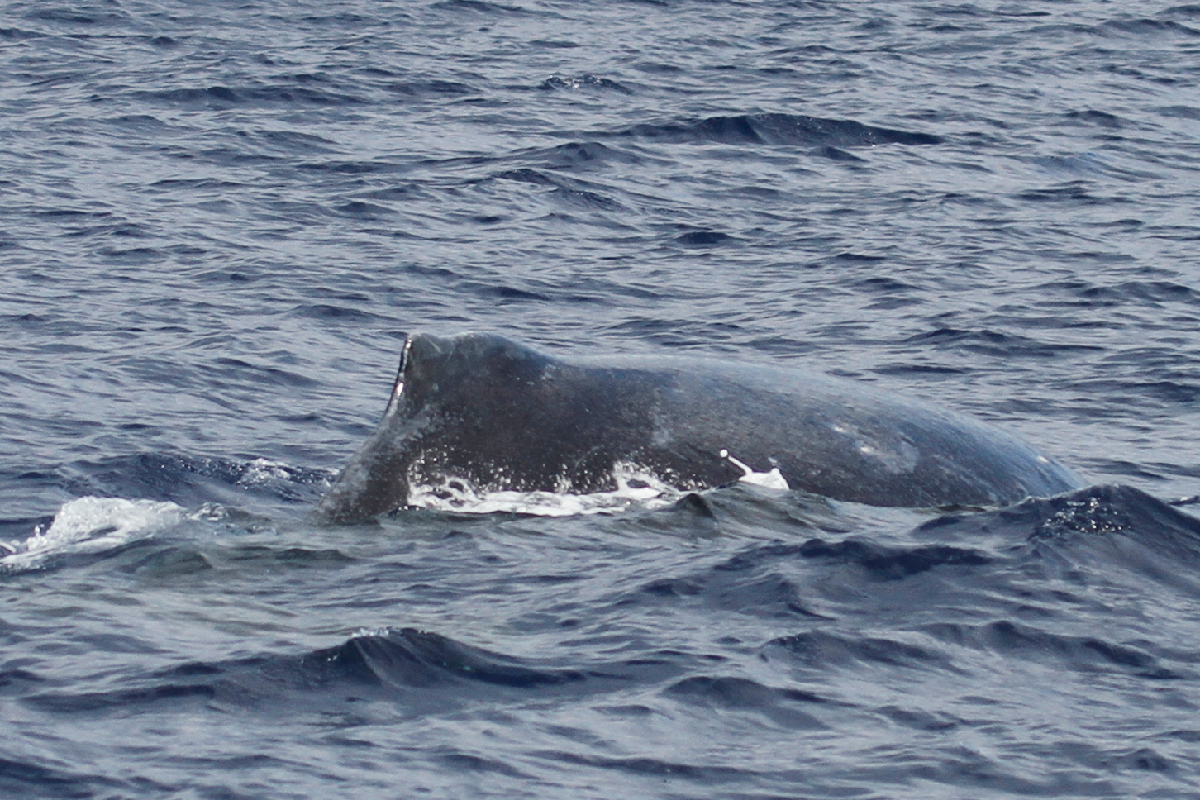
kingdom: Animalia
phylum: Chordata
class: Mammalia
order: Cetacea
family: Balaenopteridae
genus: Megaptera
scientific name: Megaptera novaeangliae
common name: Humpback whale
